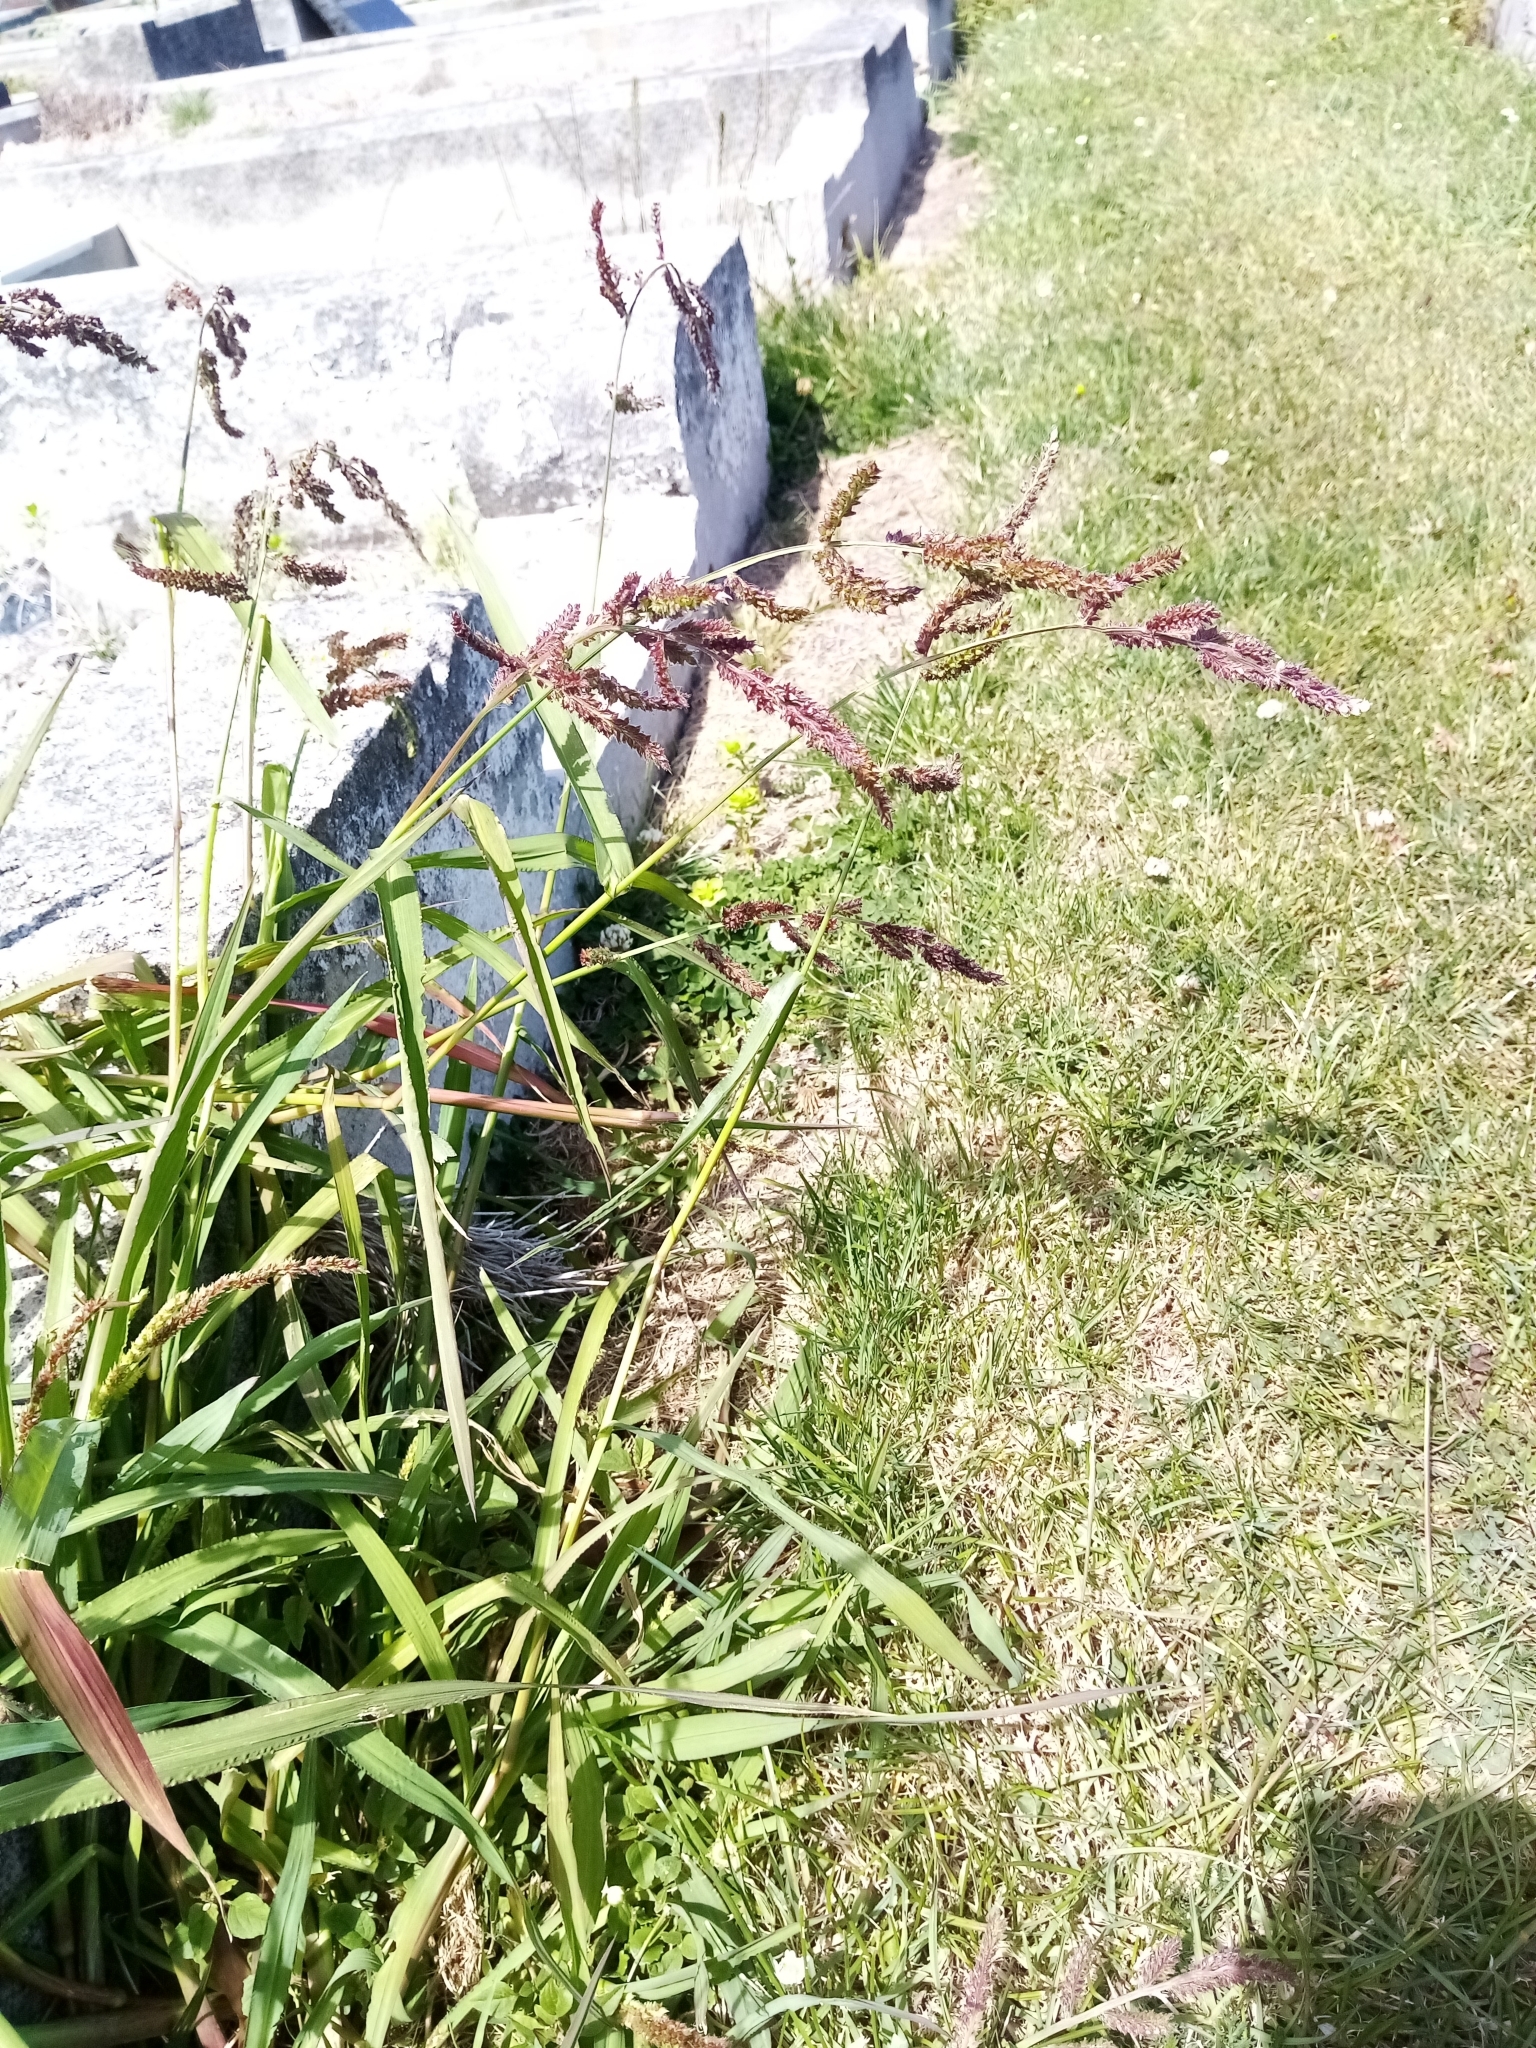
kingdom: Plantae
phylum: Tracheophyta
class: Liliopsida
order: Poales
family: Poaceae
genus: Echinochloa
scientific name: Echinochloa crus-galli
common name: Cockspur
